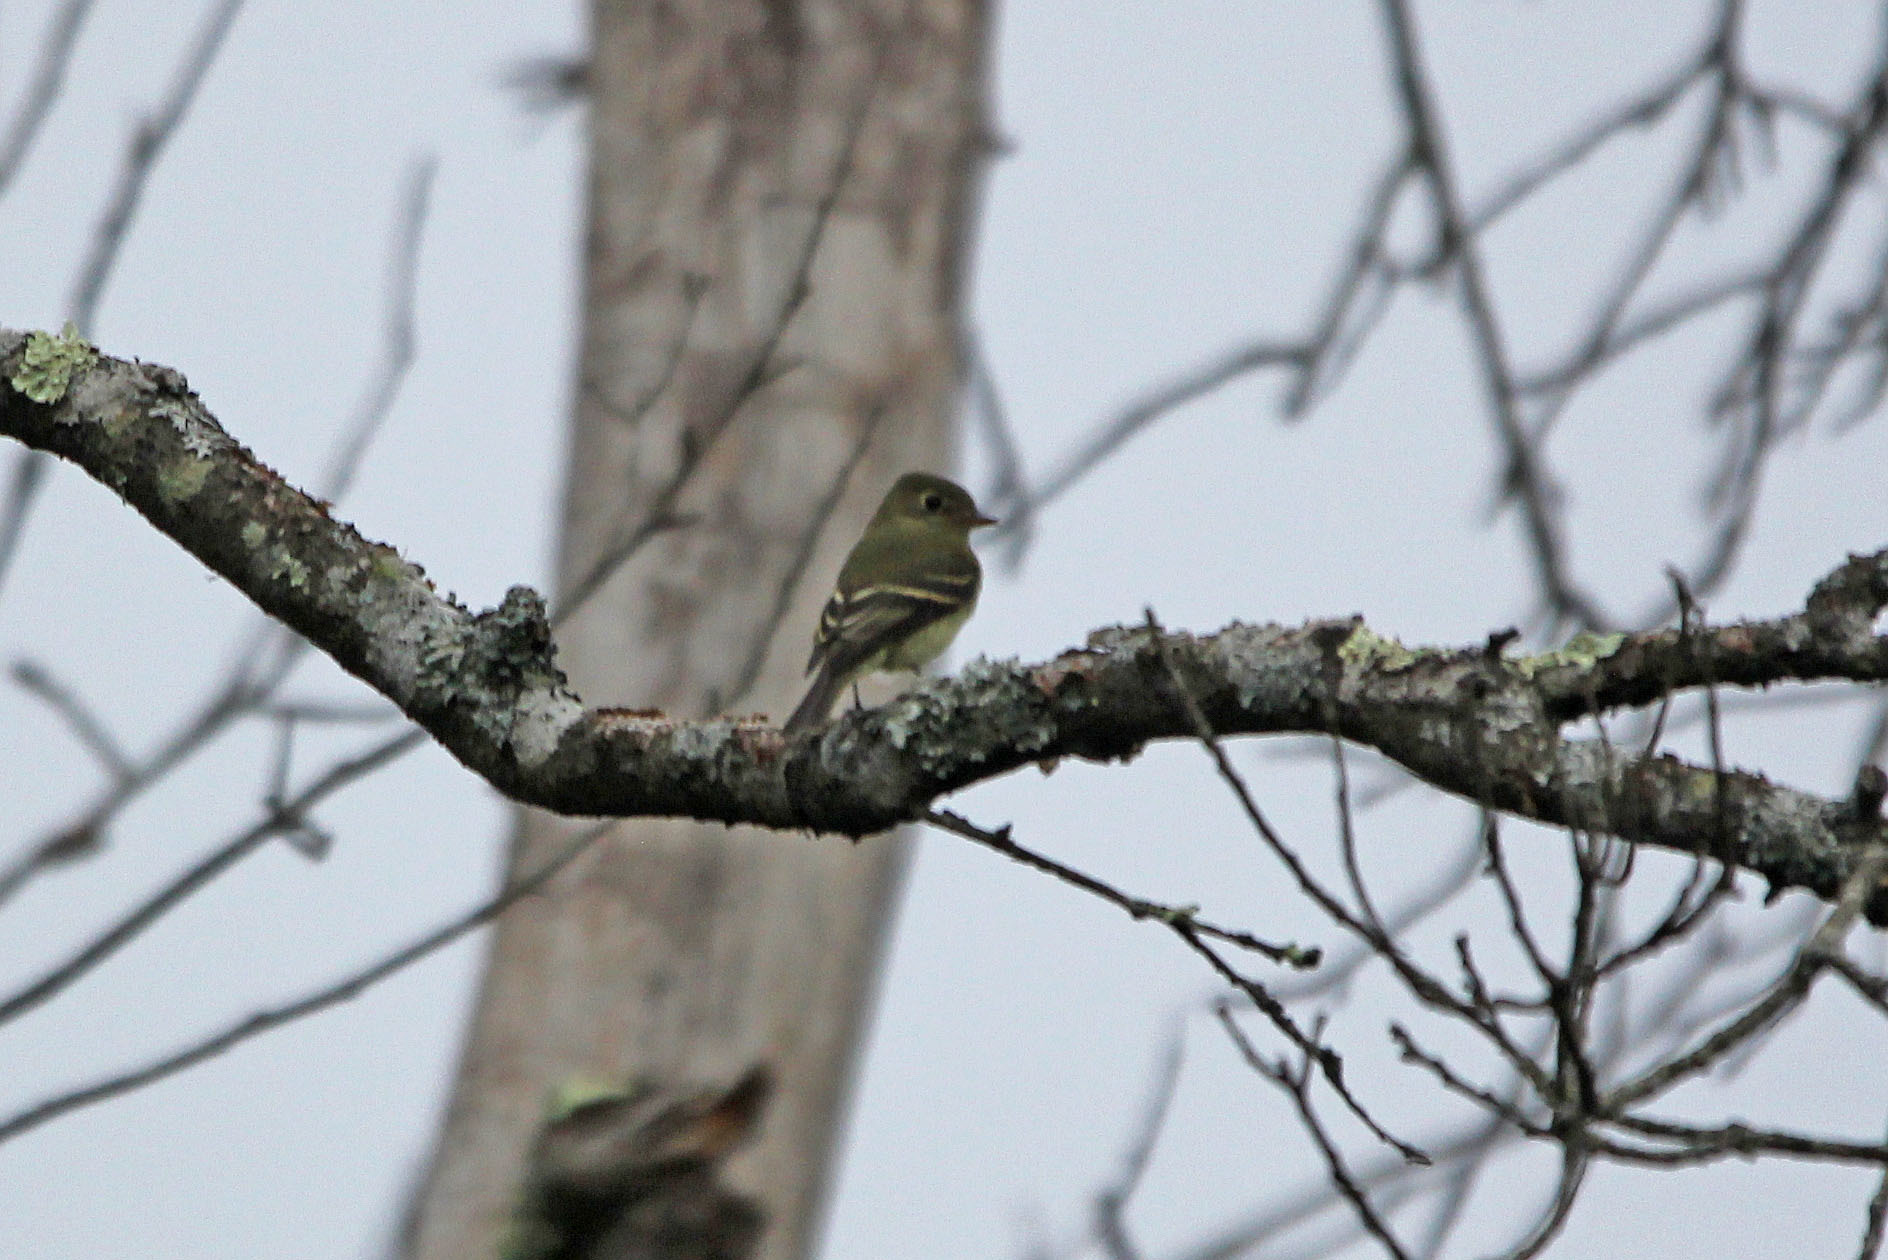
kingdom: Animalia
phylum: Chordata
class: Aves
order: Passeriformes
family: Tyrannidae
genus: Empidonax
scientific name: Empidonax flaviventris
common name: Yellow-bellied flycatcher
